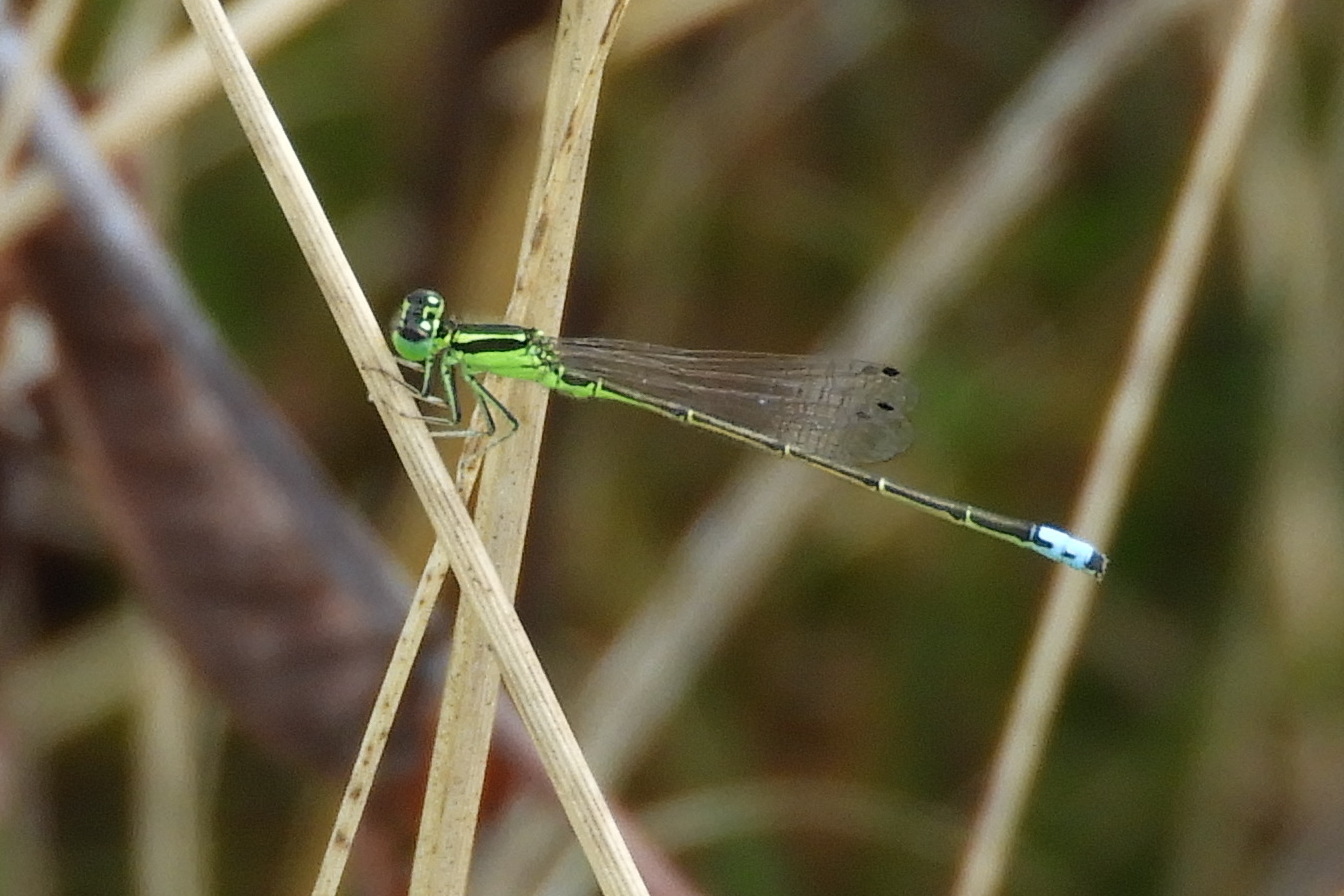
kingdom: Animalia
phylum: Arthropoda
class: Insecta
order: Odonata
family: Coenagrionidae
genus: Ischnura
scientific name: Ischnura verticalis
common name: Eastern forktail
